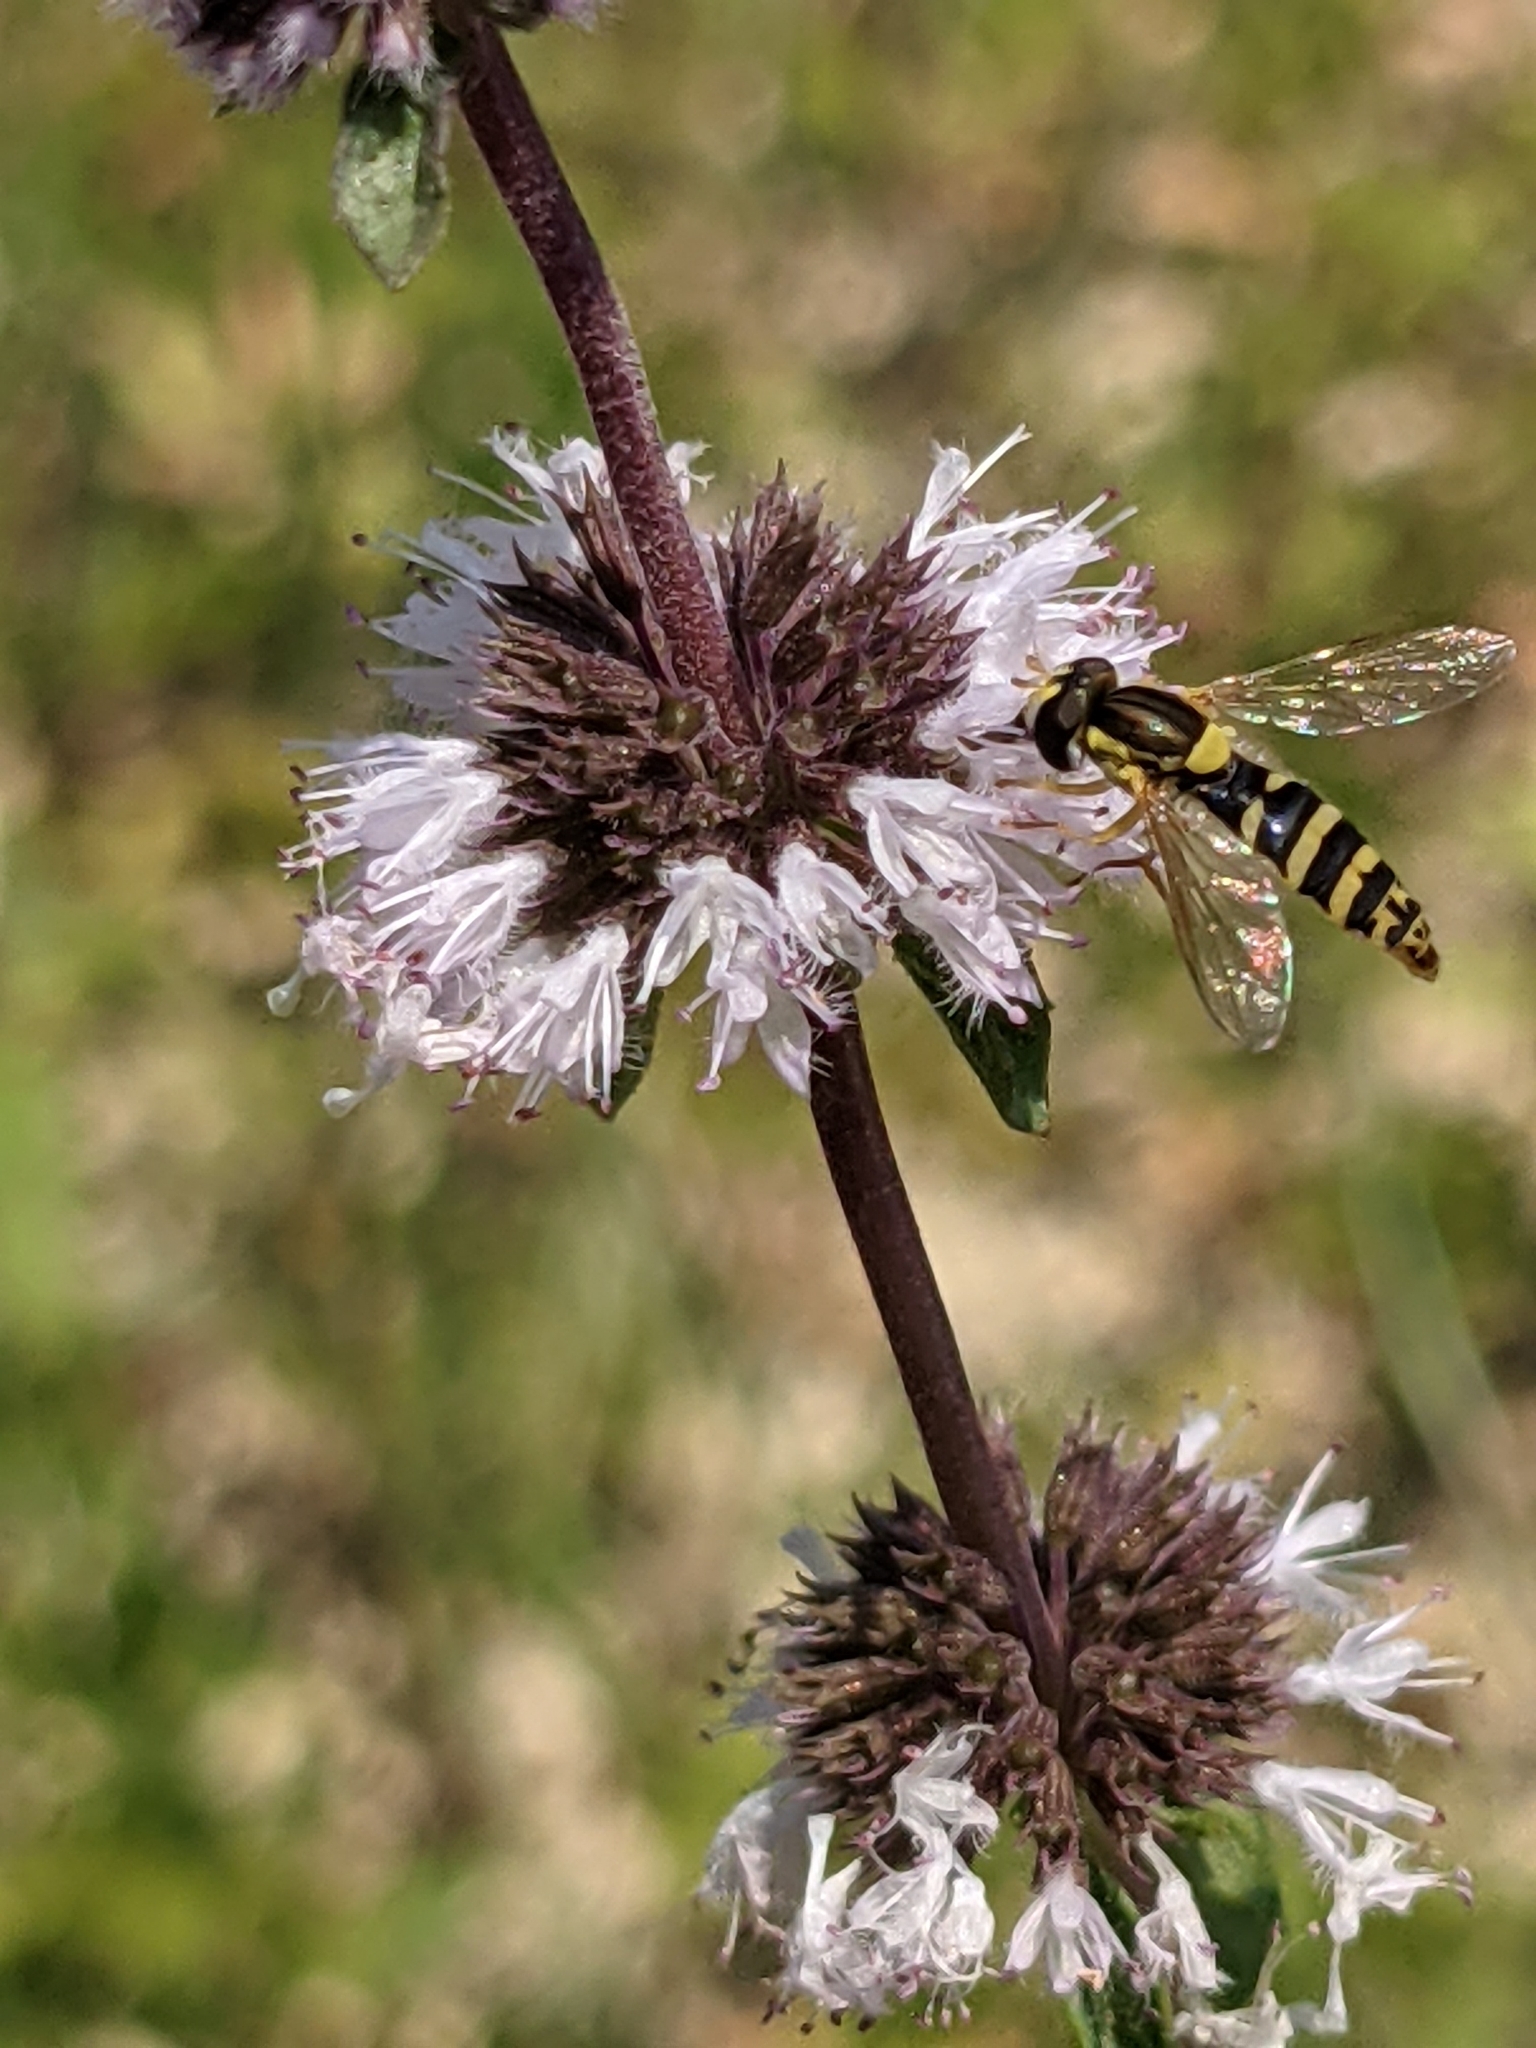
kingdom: Animalia
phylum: Arthropoda
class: Insecta
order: Diptera
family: Syrphidae
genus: Sphaerophoria
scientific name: Sphaerophoria
